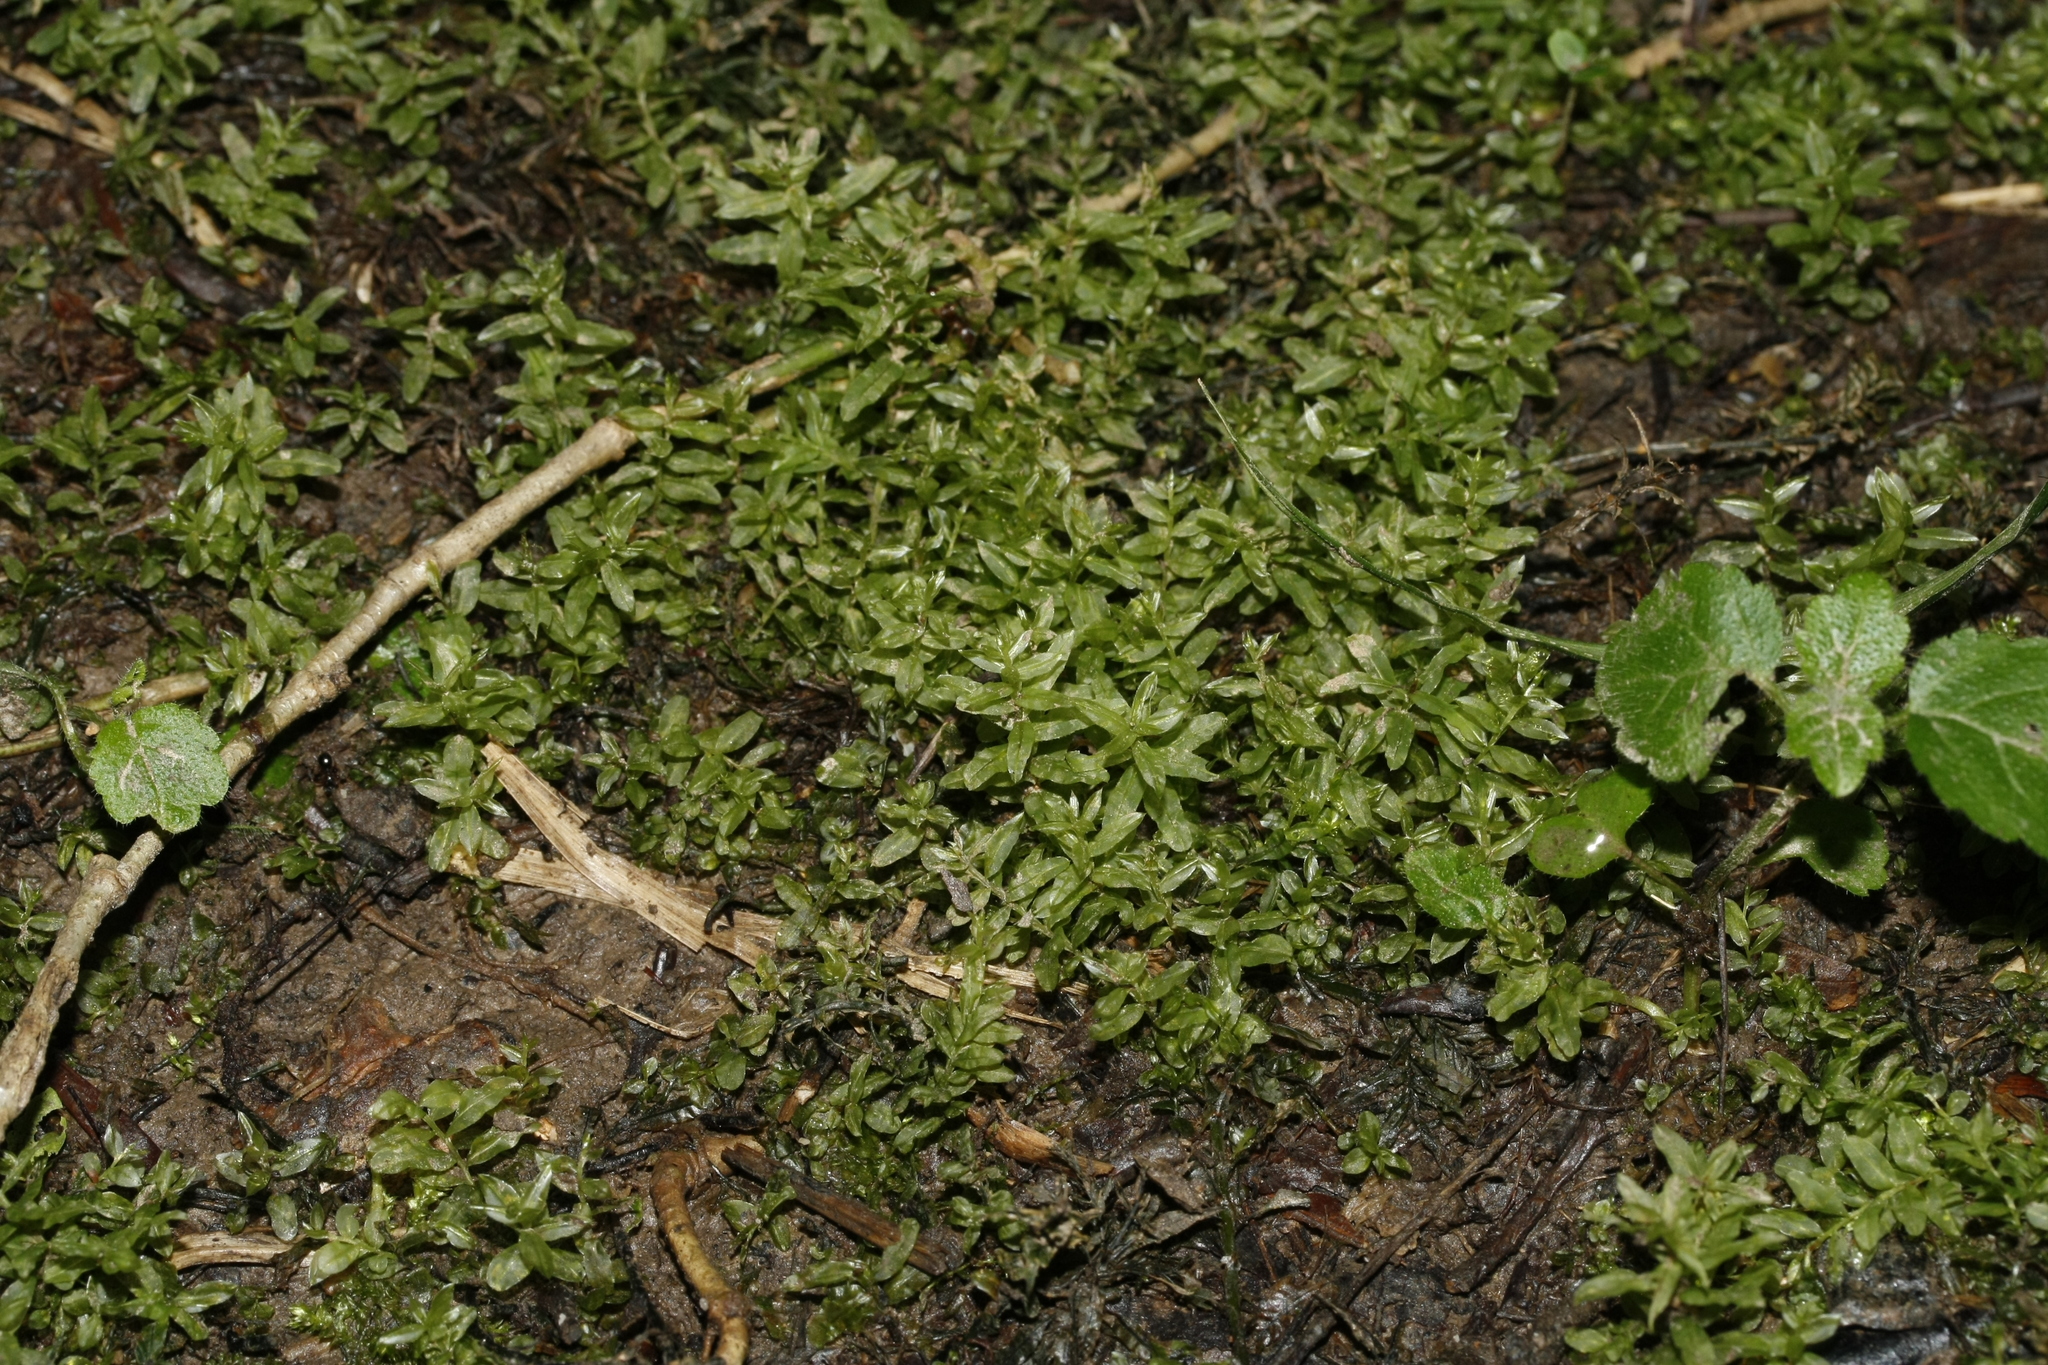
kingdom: Plantae
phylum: Bryophyta
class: Bryopsida
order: Bryales
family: Mniaceae
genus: Plagiomnium
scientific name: Plagiomnium undulatum
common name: Hart's-tongue thyme-moss
